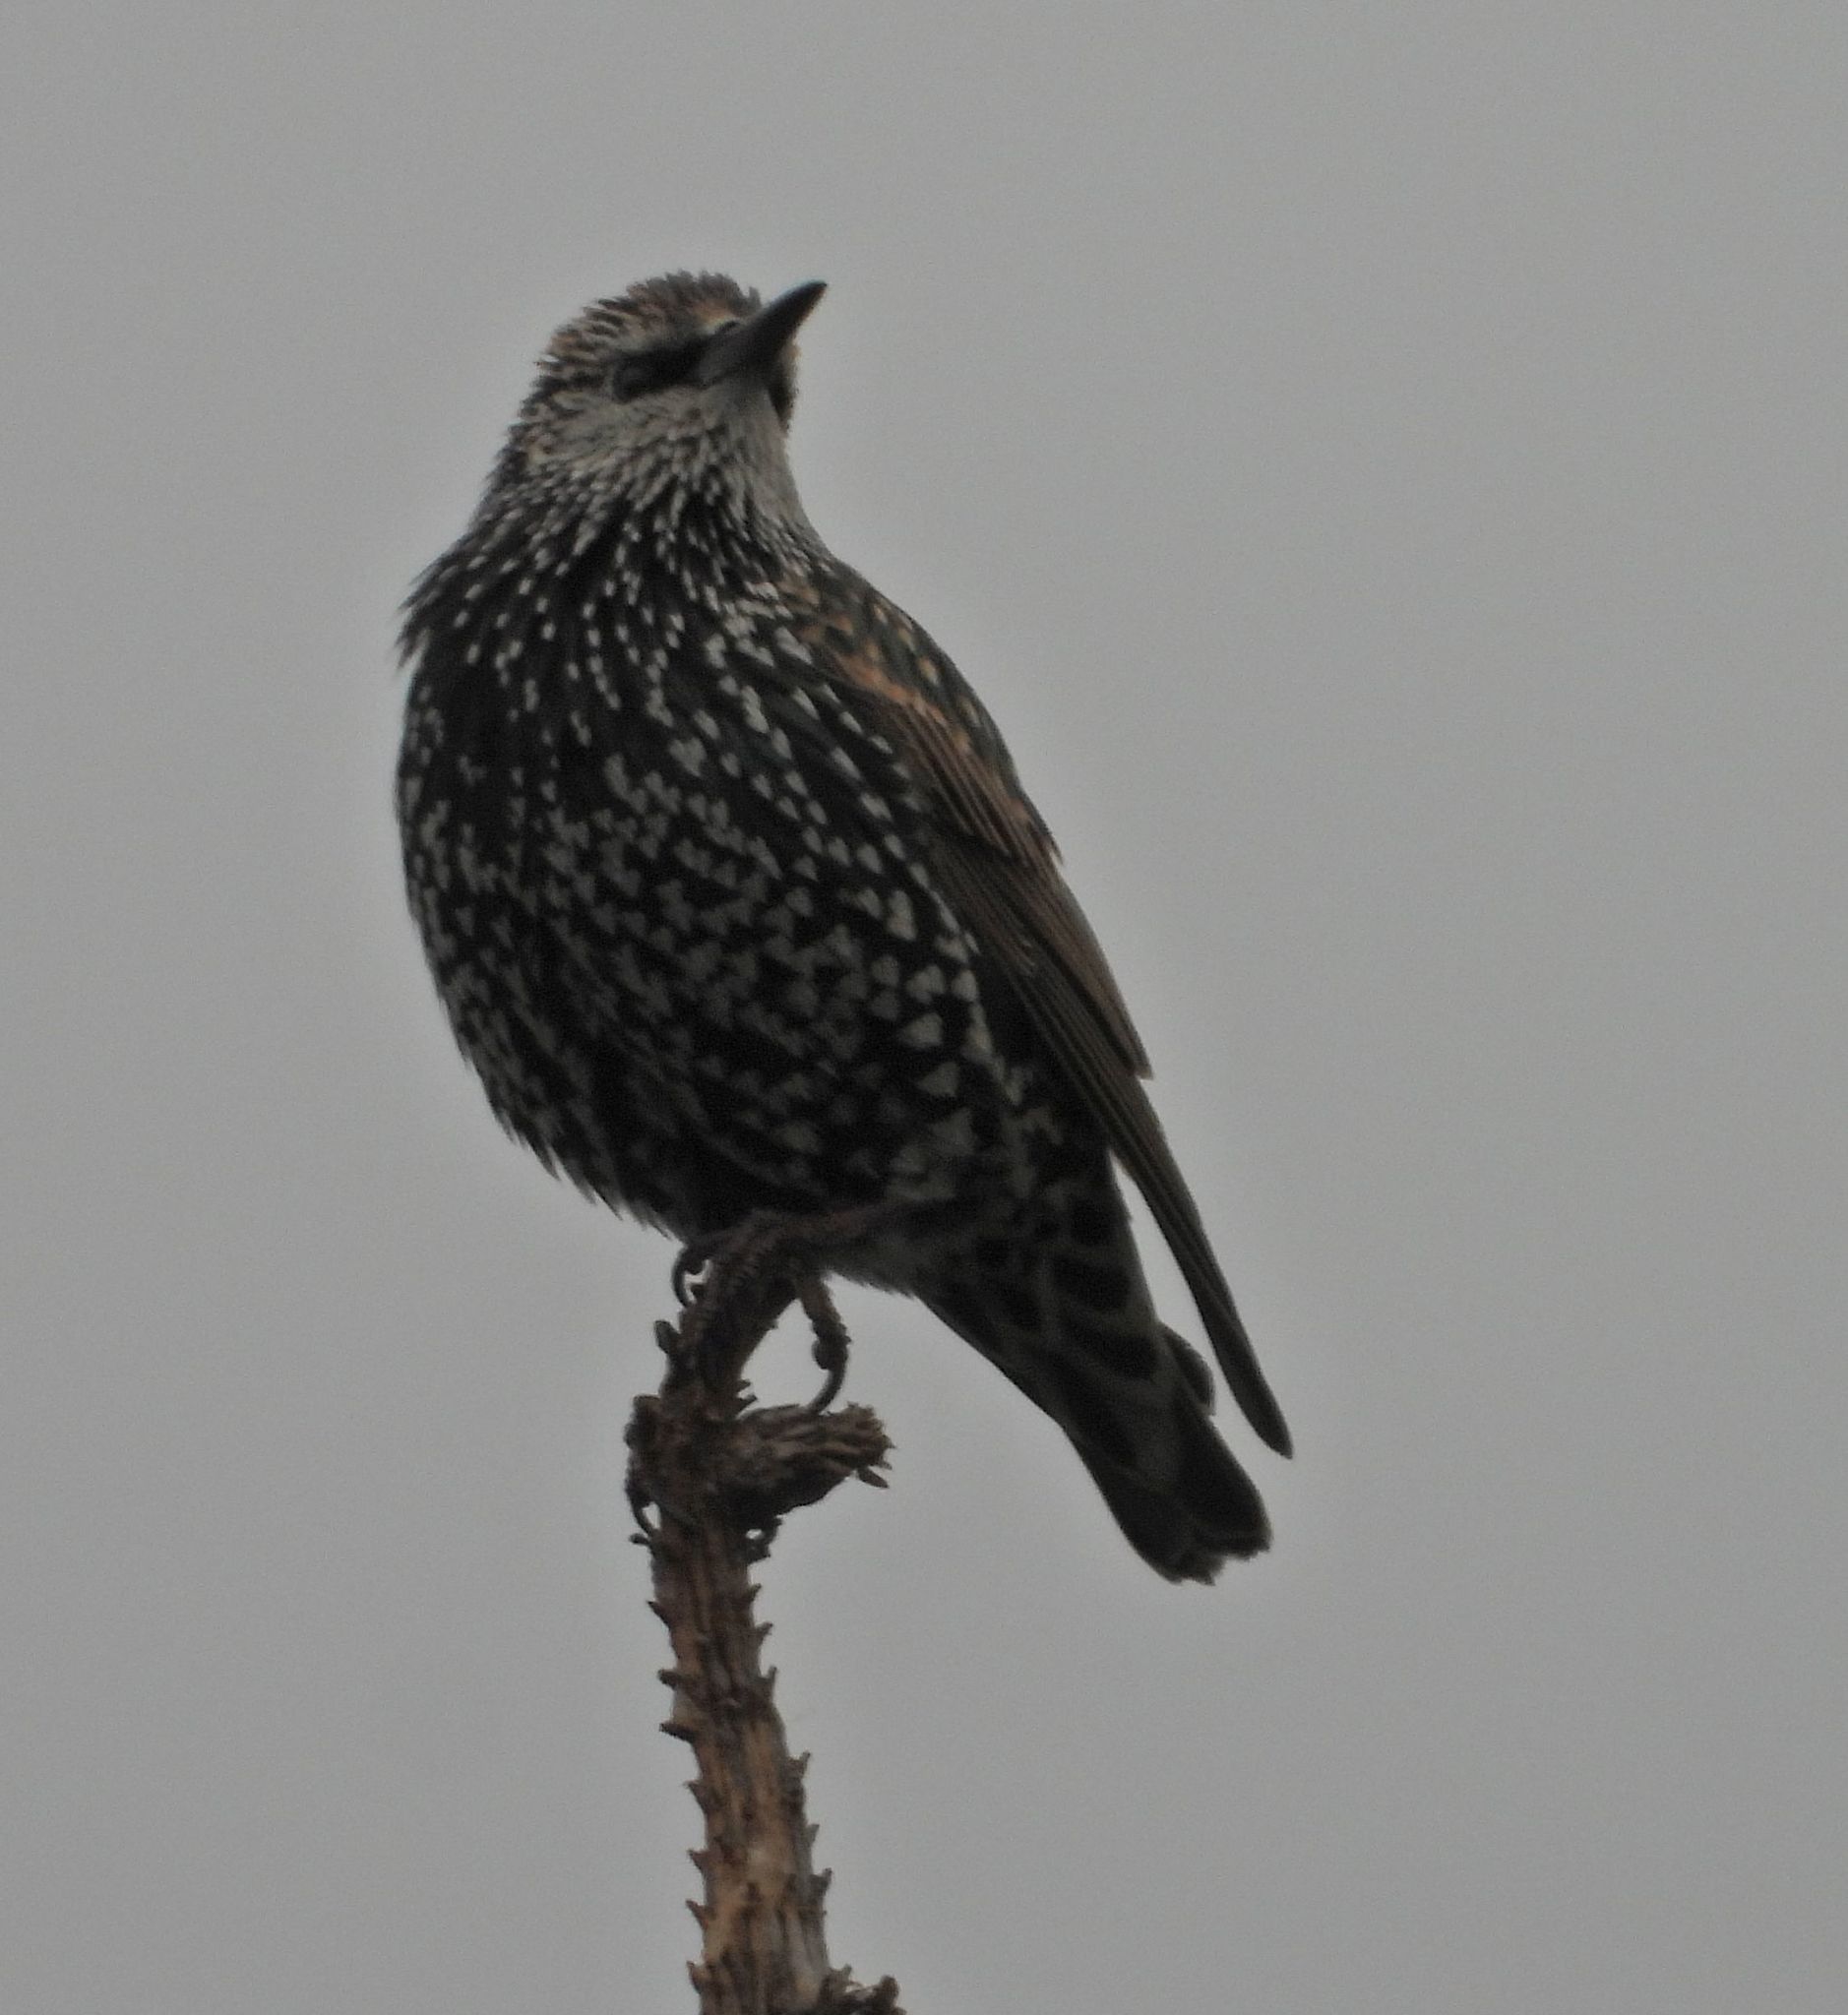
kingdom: Animalia
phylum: Chordata
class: Aves
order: Passeriformes
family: Sturnidae
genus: Sturnus
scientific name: Sturnus vulgaris
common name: Common starling
